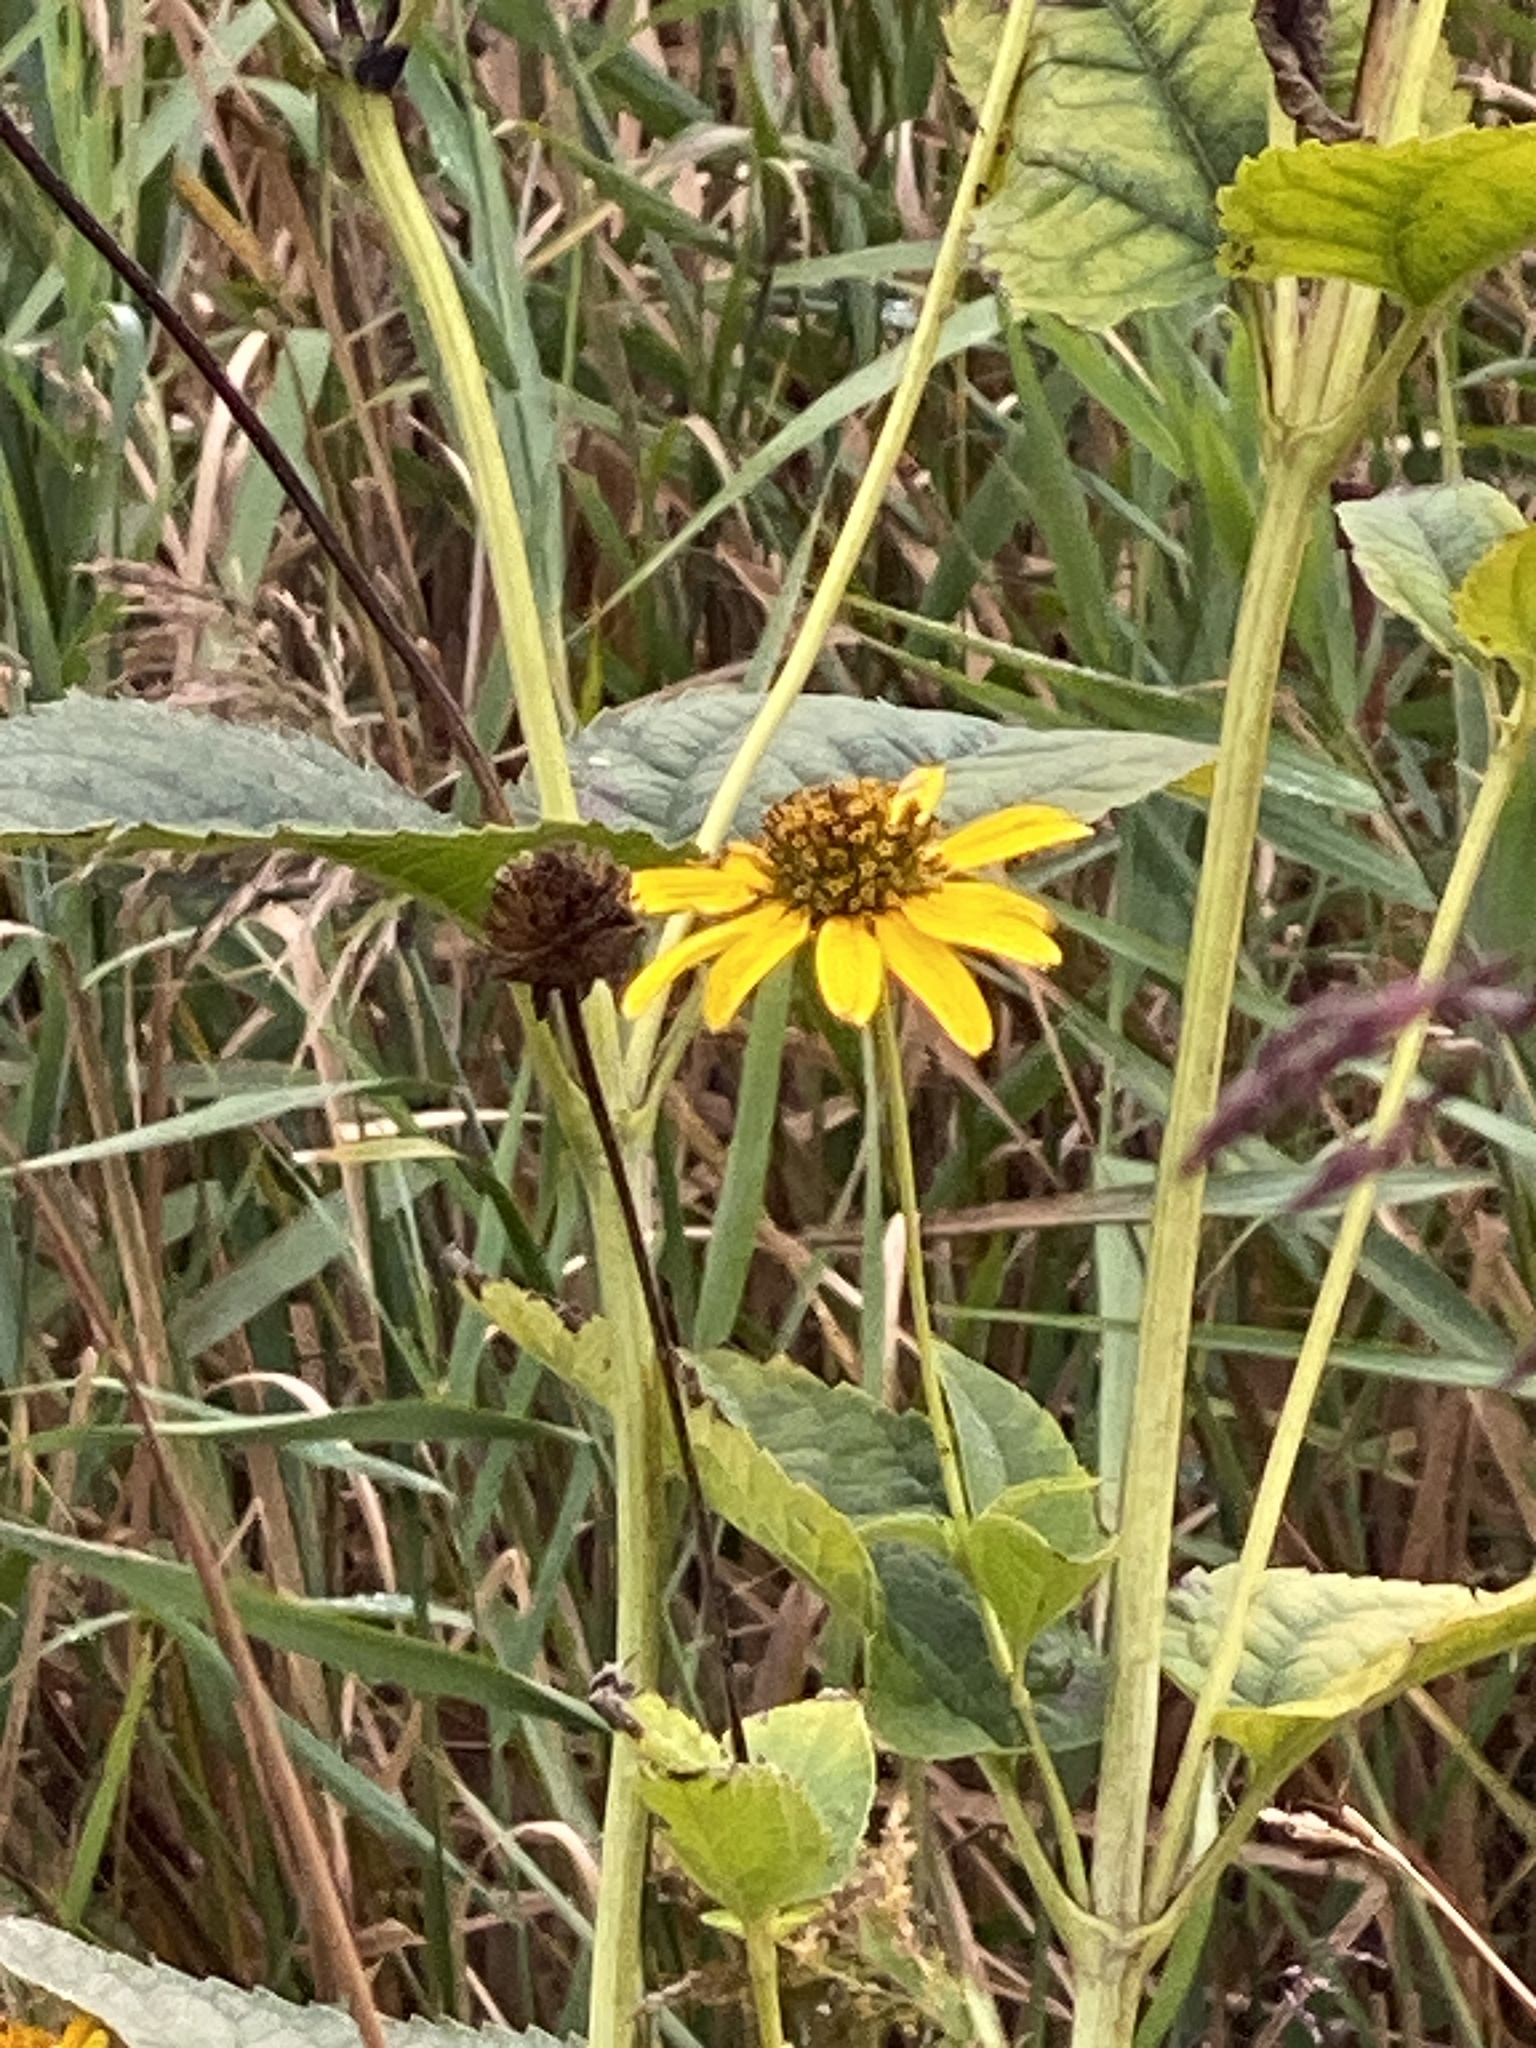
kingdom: Plantae
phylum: Tracheophyta
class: Magnoliopsida
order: Asterales
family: Asteraceae
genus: Heliopsis
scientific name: Heliopsis helianthoides
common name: False sunflower
